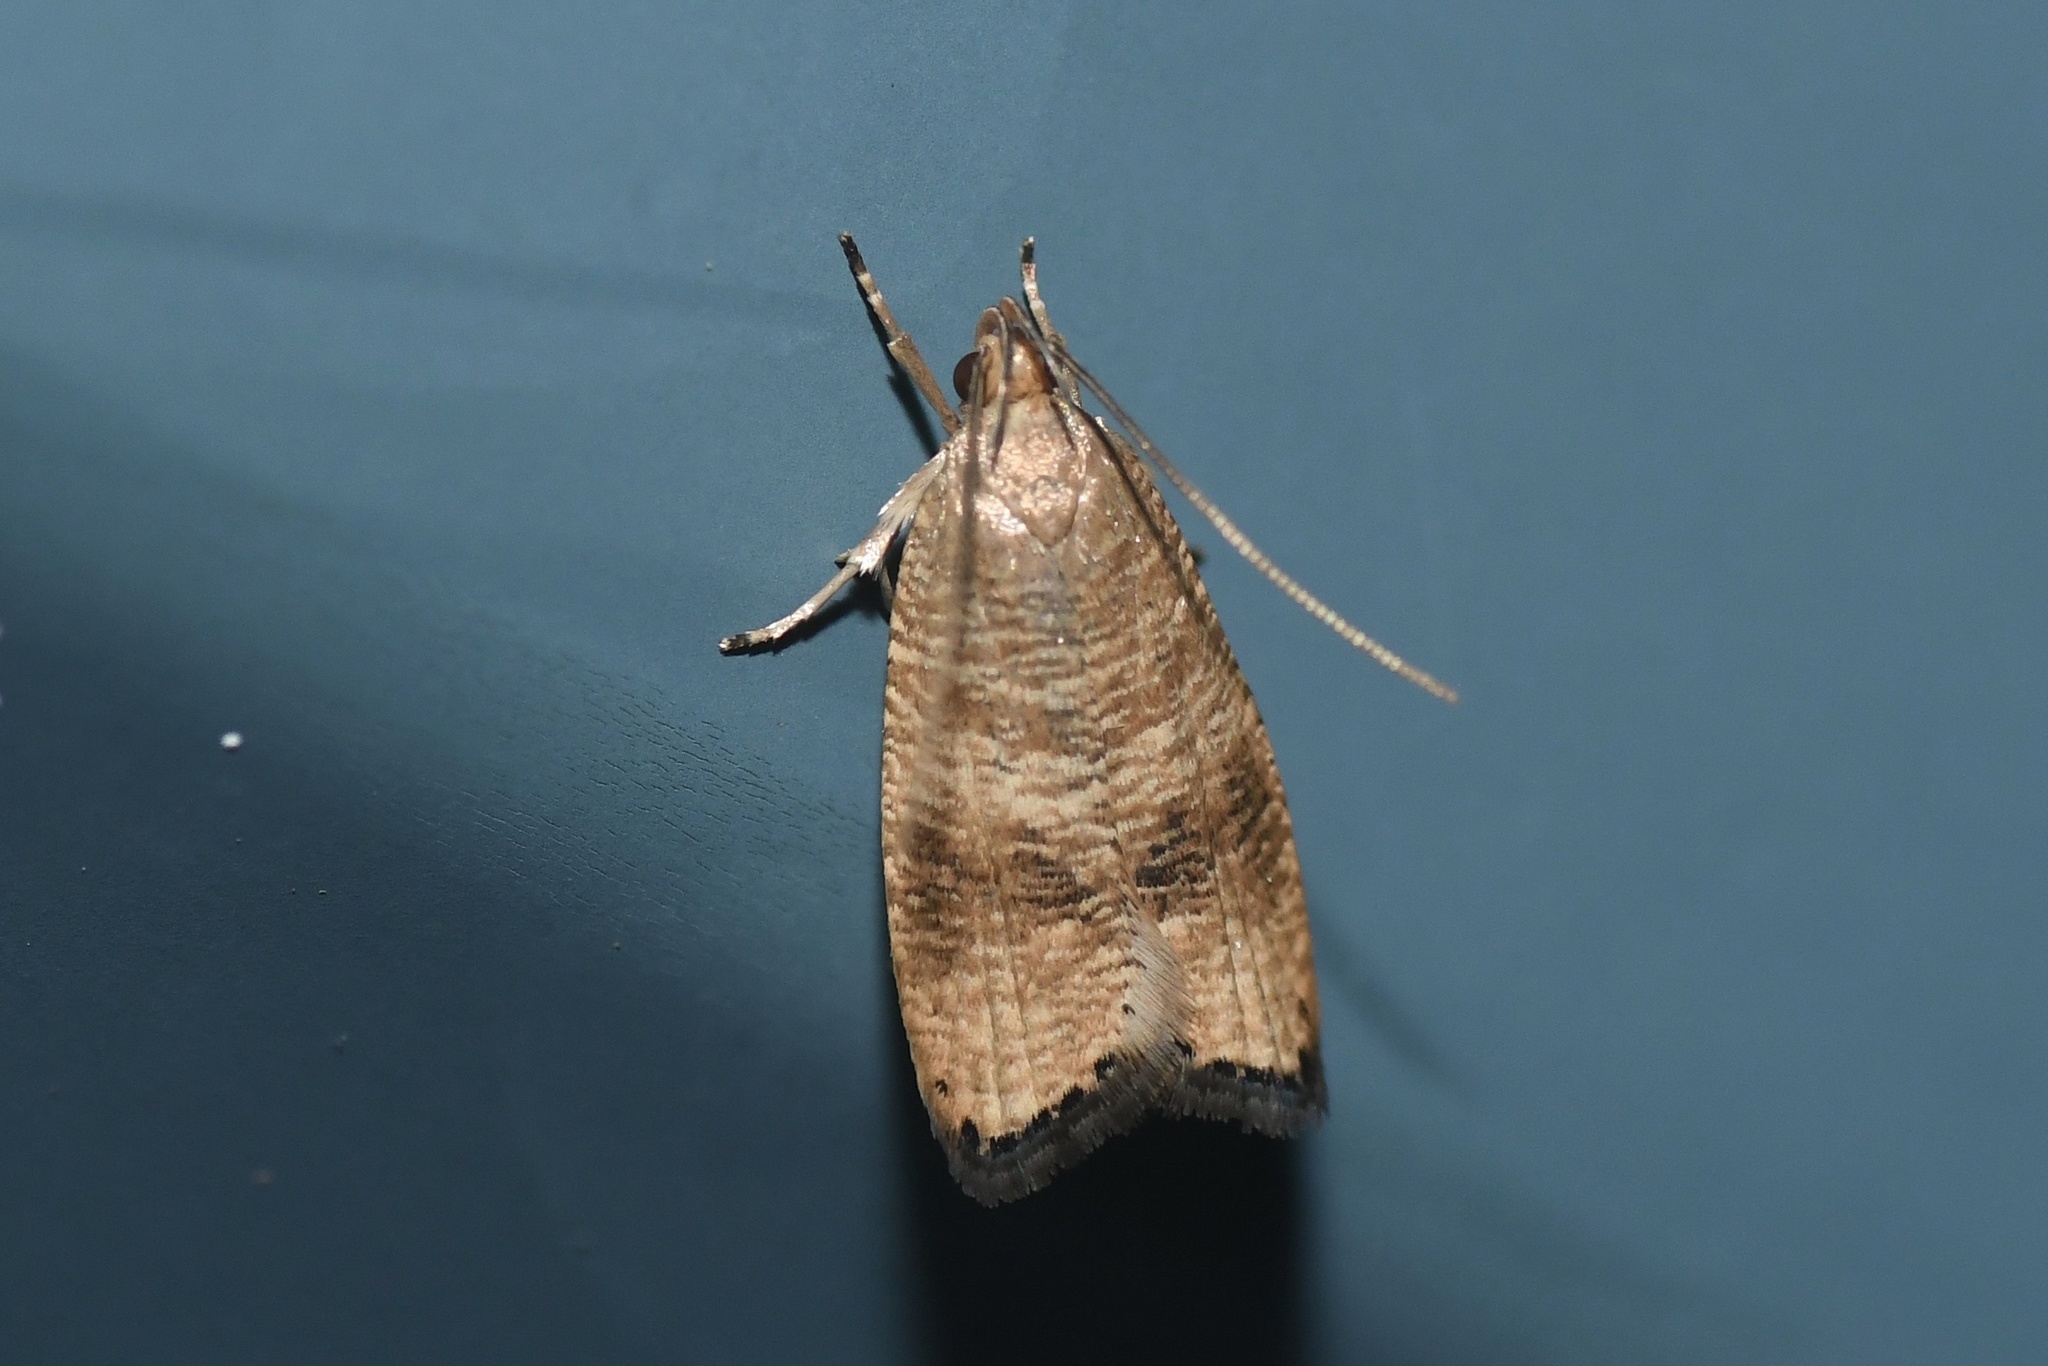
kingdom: Animalia
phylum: Arthropoda
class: Insecta
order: Lepidoptera
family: Depressariidae
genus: Psilocorsis
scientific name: Psilocorsis cryptolechiella
